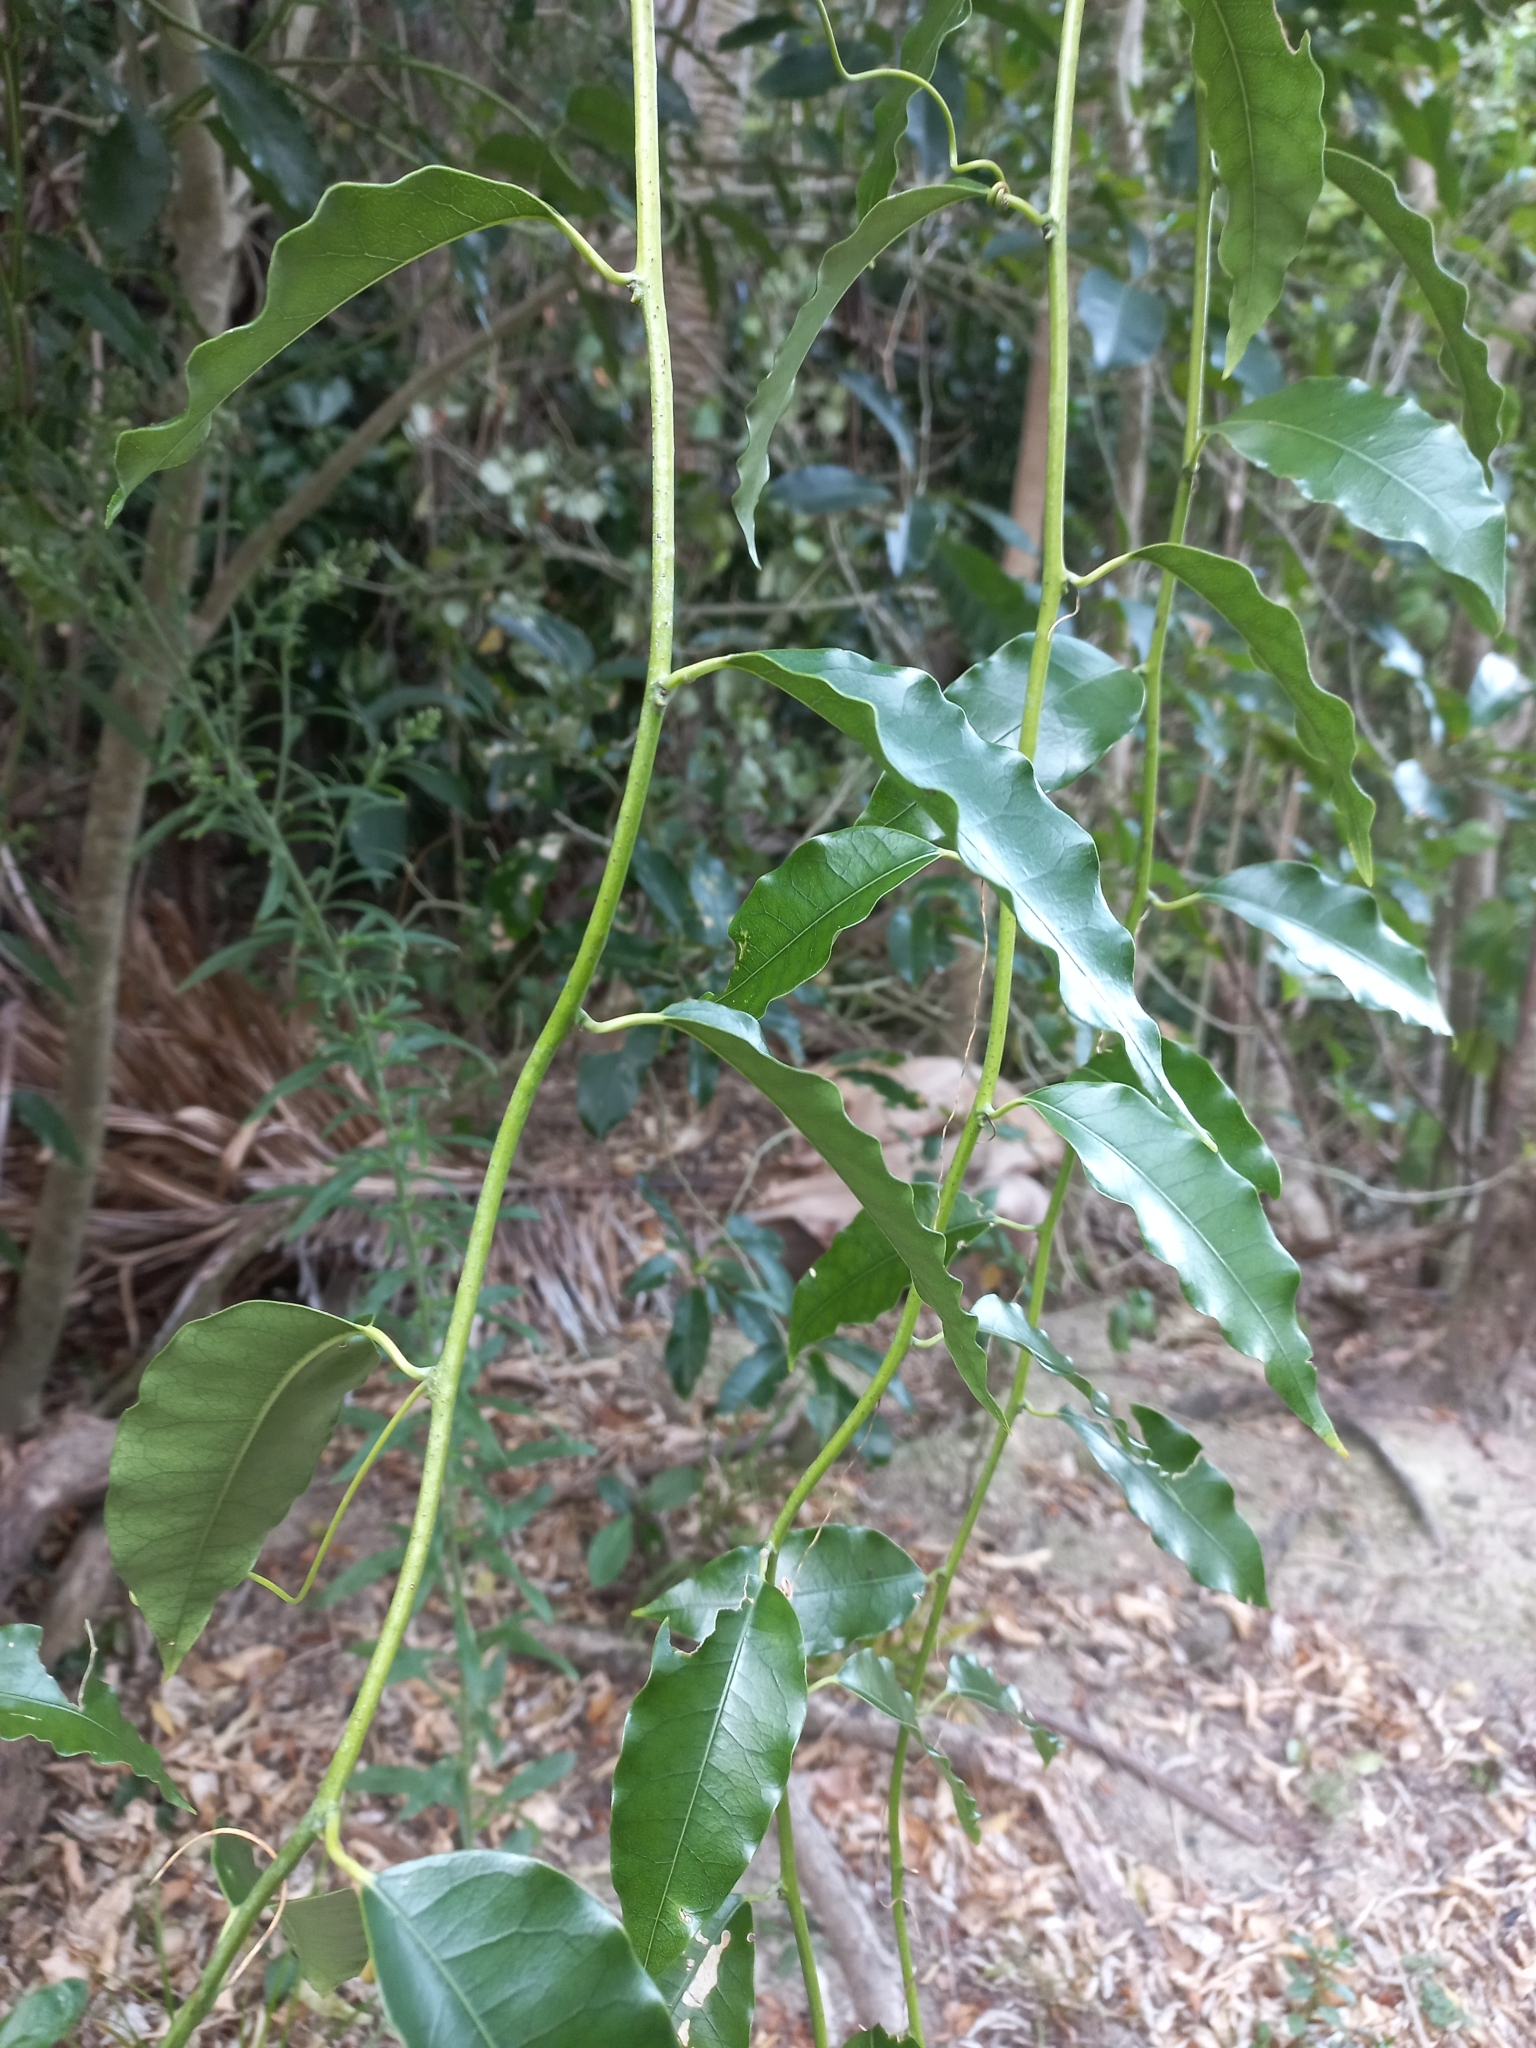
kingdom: Plantae
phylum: Tracheophyta
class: Magnoliopsida
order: Malpighiales
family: Passifloraceae
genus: Passiflora
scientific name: Passiflora tetrandra
